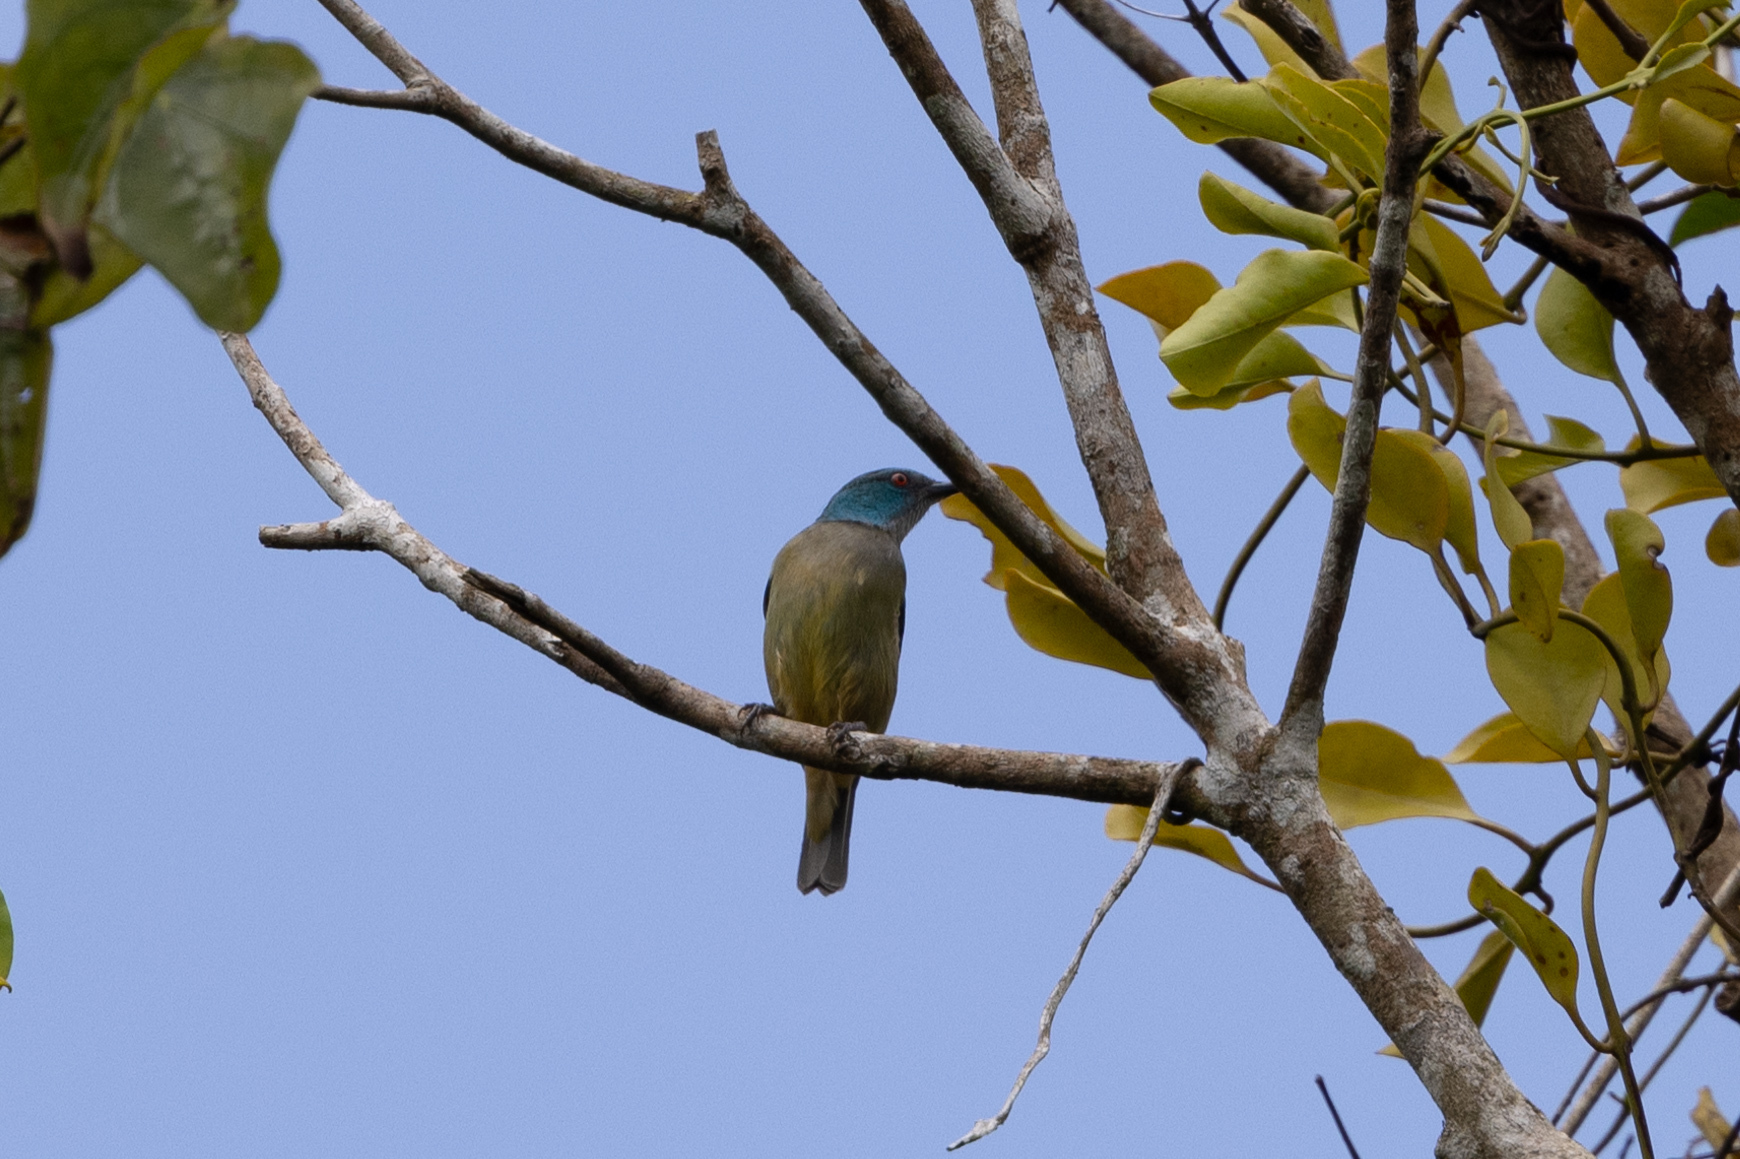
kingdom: Animalia
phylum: Chordata
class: Aves
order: Passeriformes
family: Thraupidae
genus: Dacnis
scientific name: Dacnis venusta
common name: Scarlet-thighed dacnis
